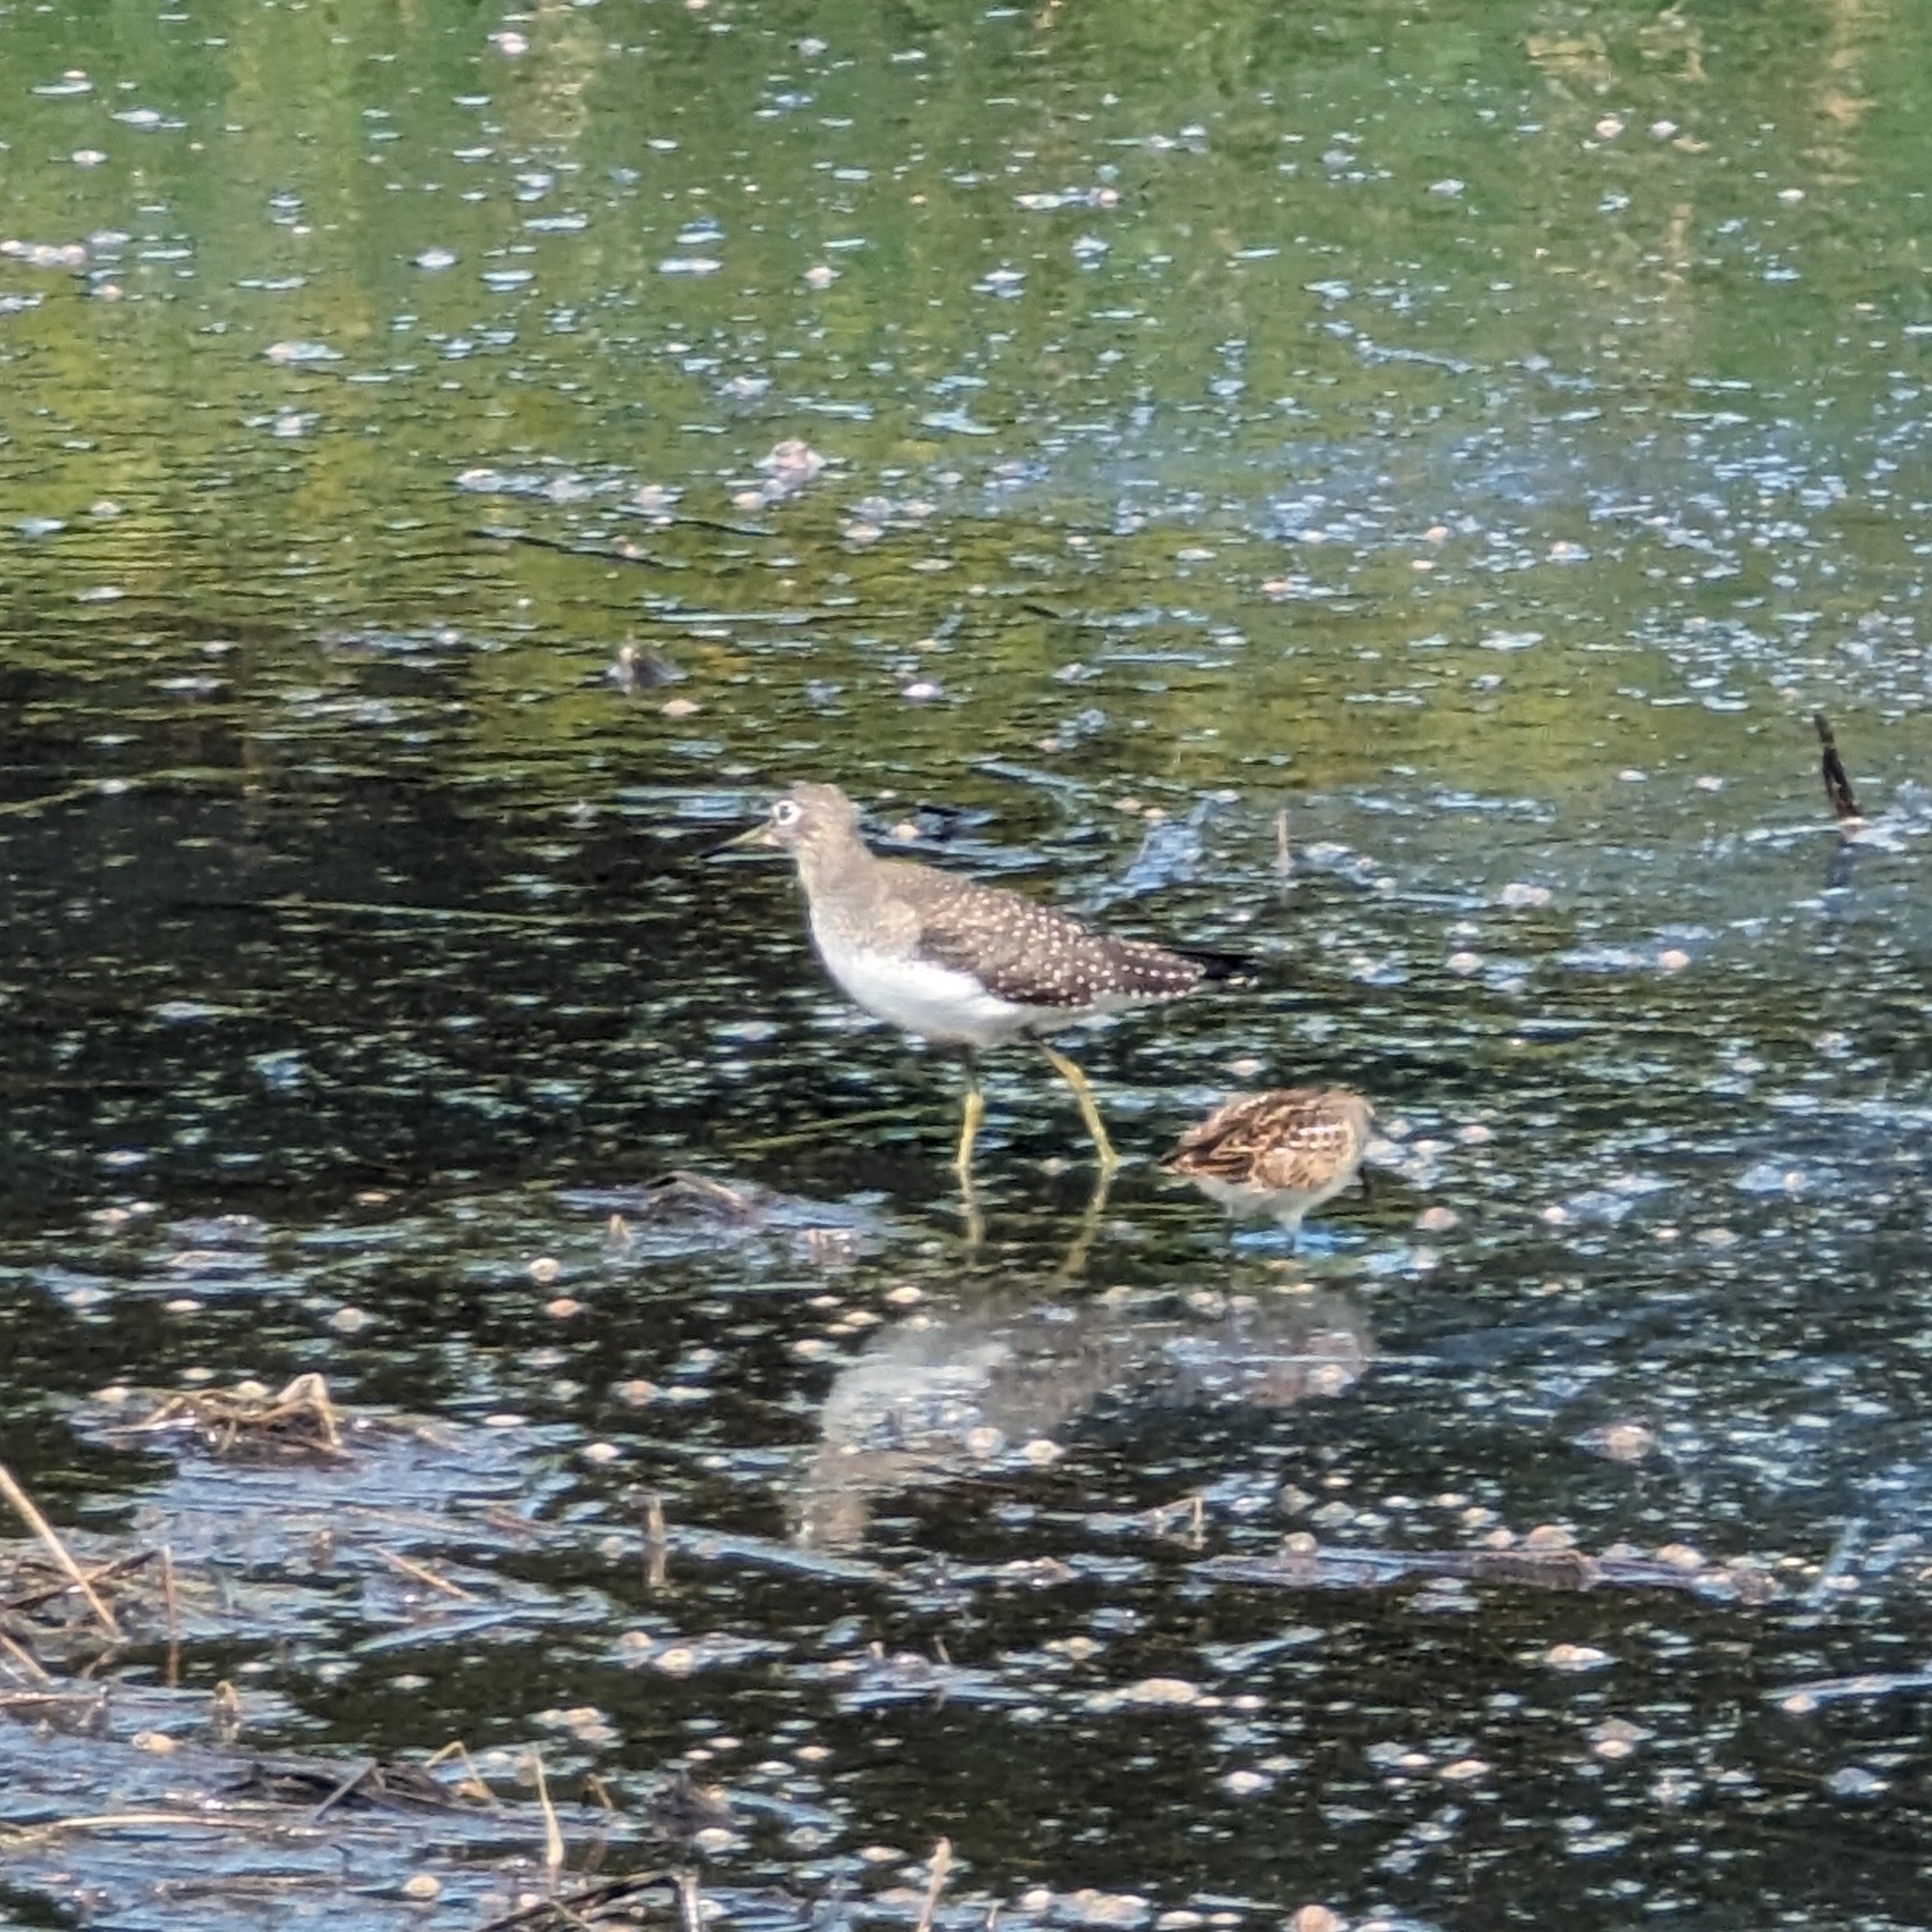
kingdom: Animalia
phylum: Chordata
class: Aves
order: Charadriiformes
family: Scolopacidae
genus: Tringa
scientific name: Tringa solitaria
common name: Solitary sandpiper
